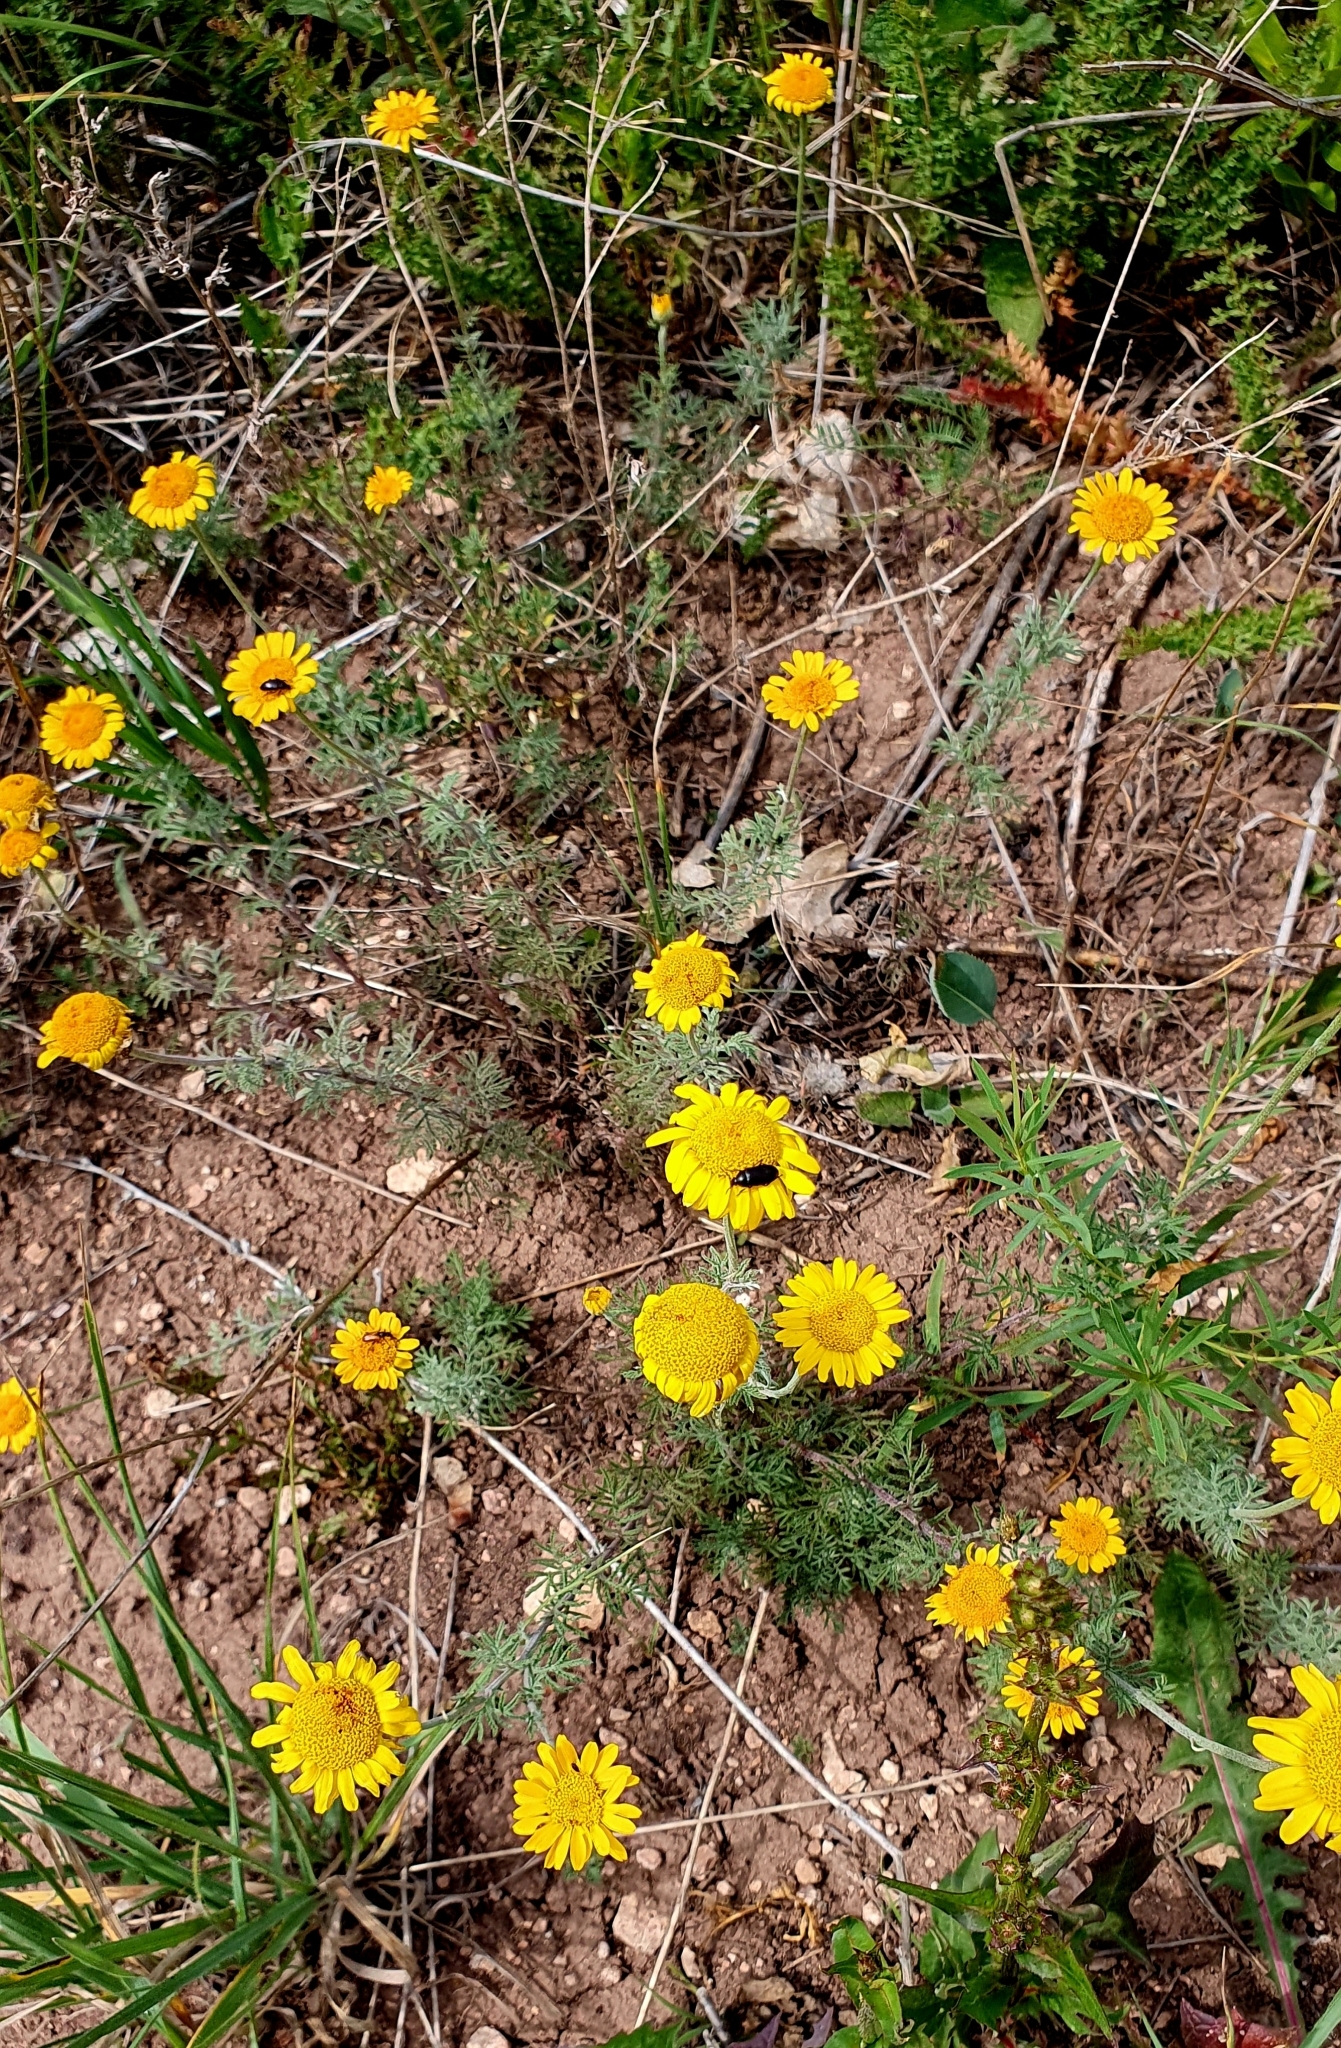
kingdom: Plantae
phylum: Tracheophyta
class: Magnoliopsida
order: Asterales
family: Asteraceae
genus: Cota
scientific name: Cota tinctoria
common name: Golden chamomile
